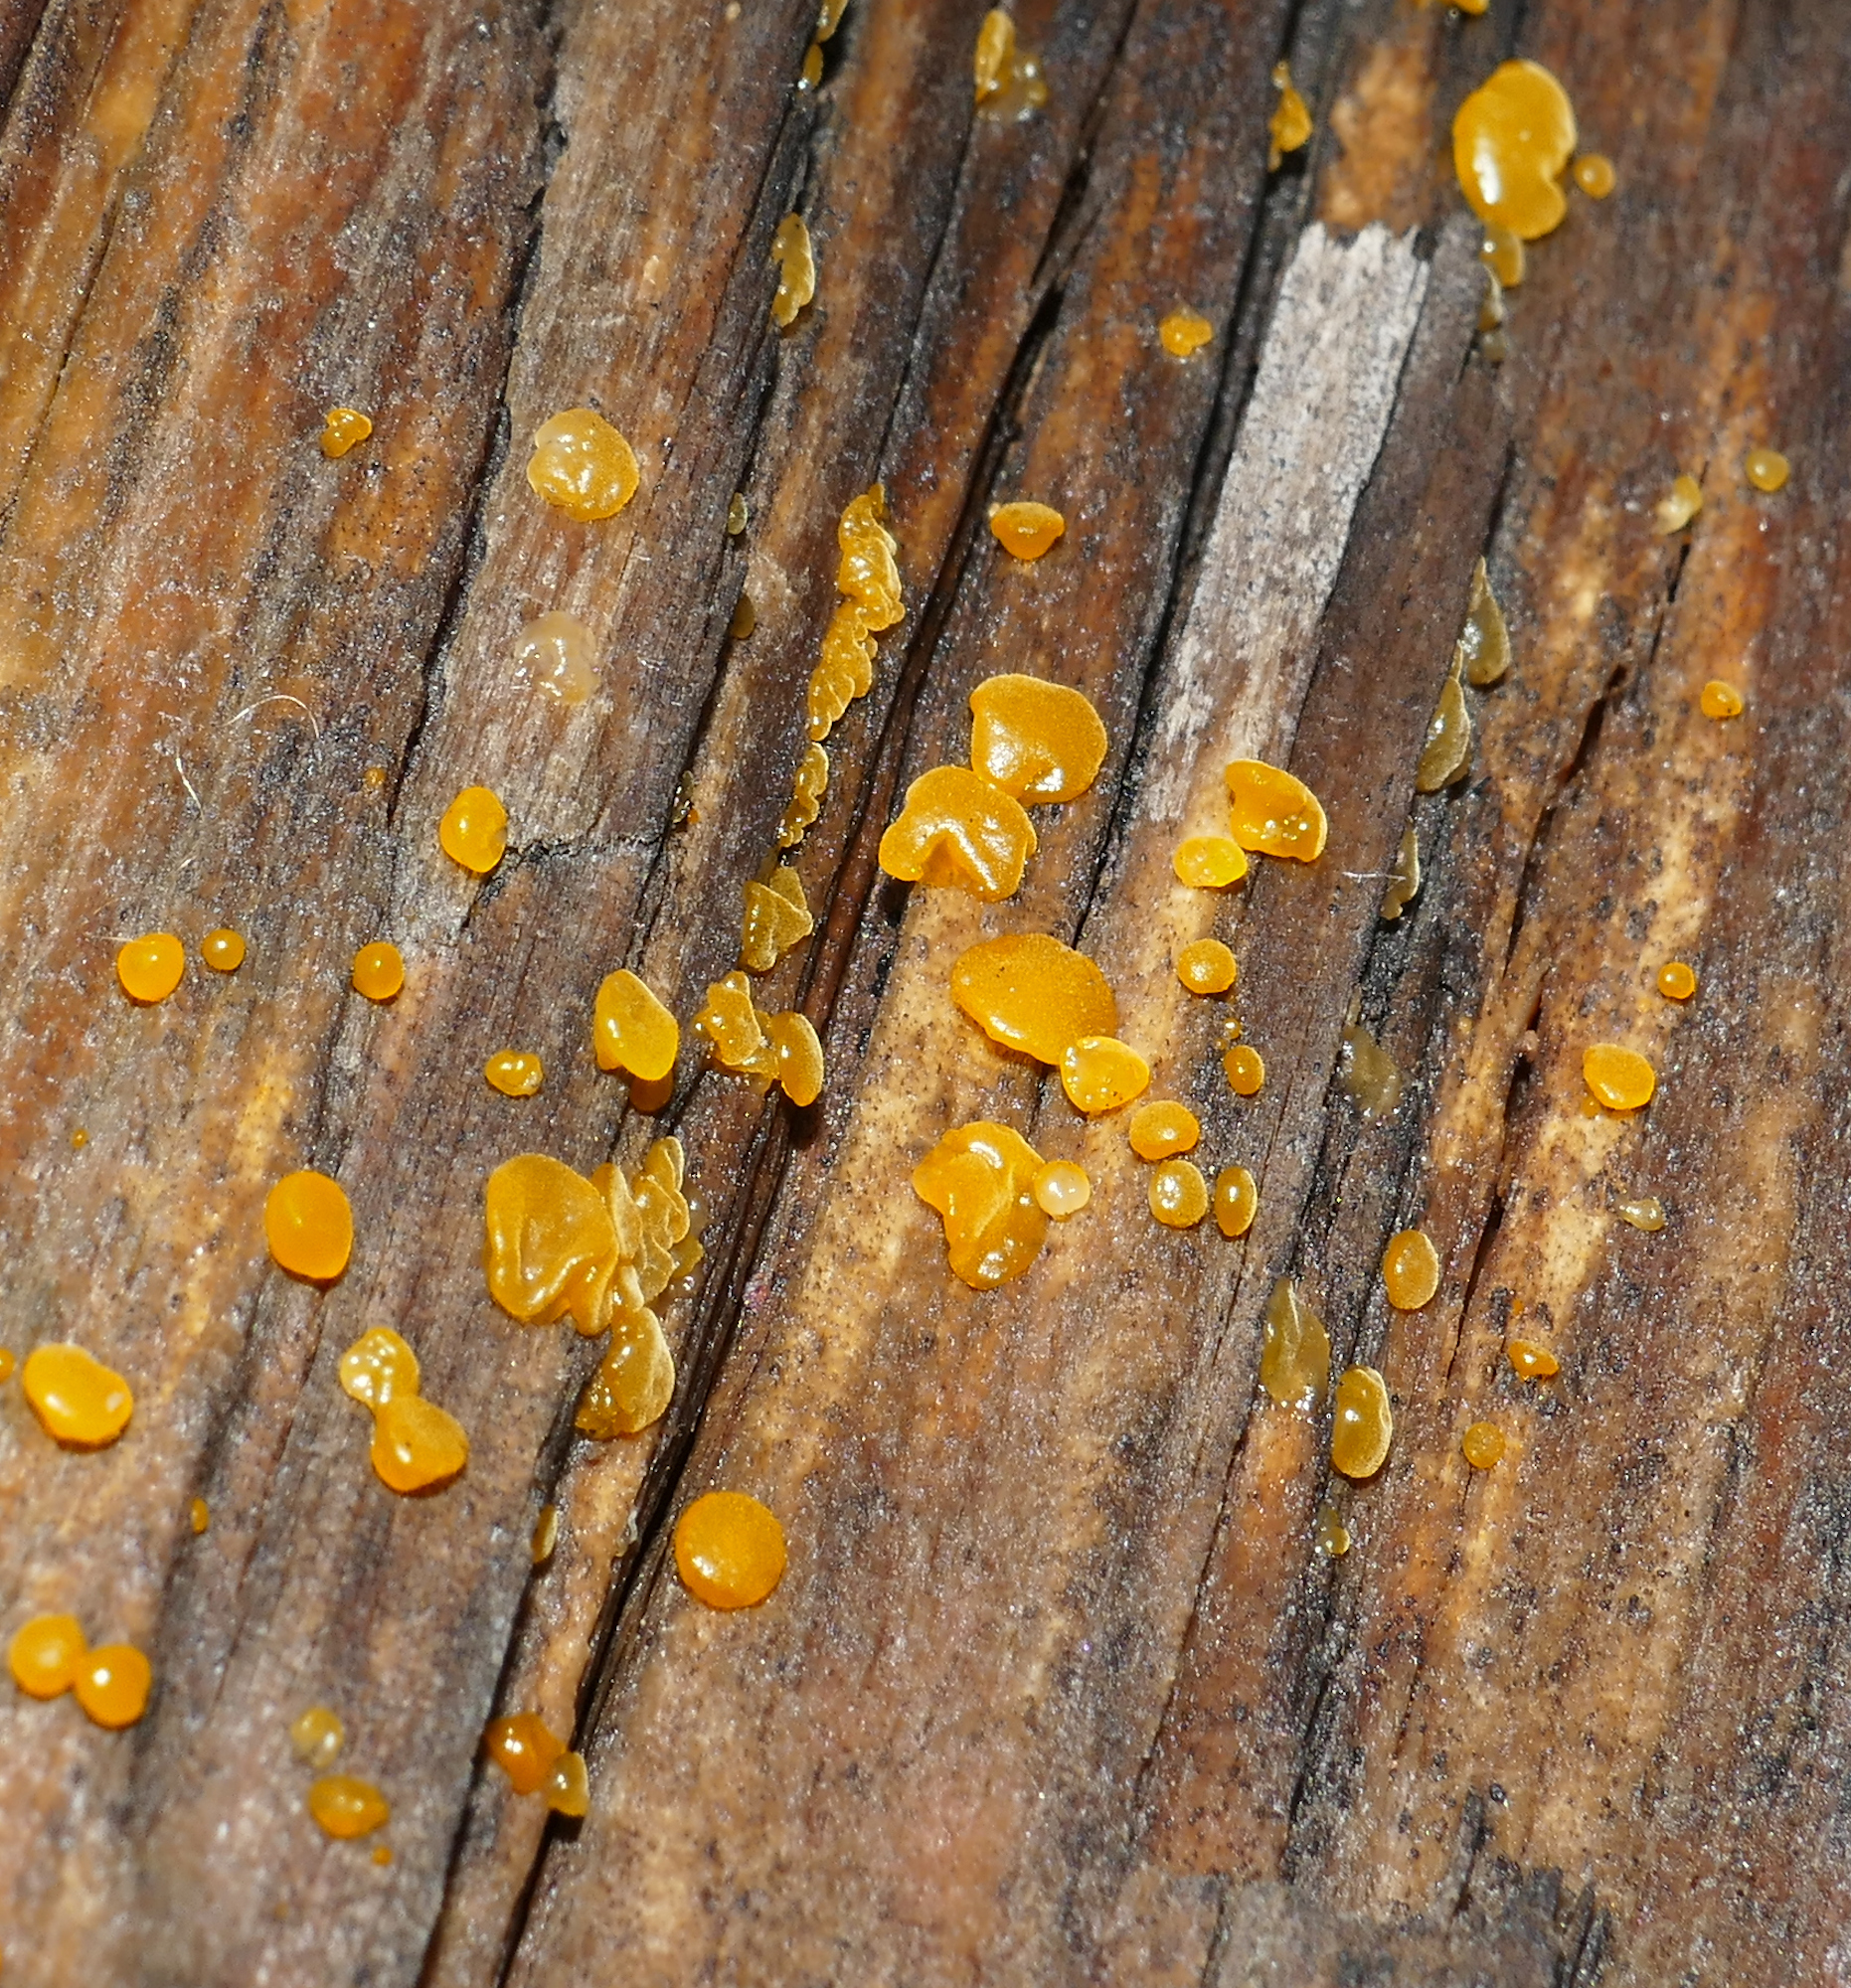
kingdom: Fungi
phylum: Basidiomycota
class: Dacrymycetes
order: Dacrymycetales
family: Dacrymycetaceae
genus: Dacrymyces
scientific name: Dacrymyces stillatus
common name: Common jelly spot
